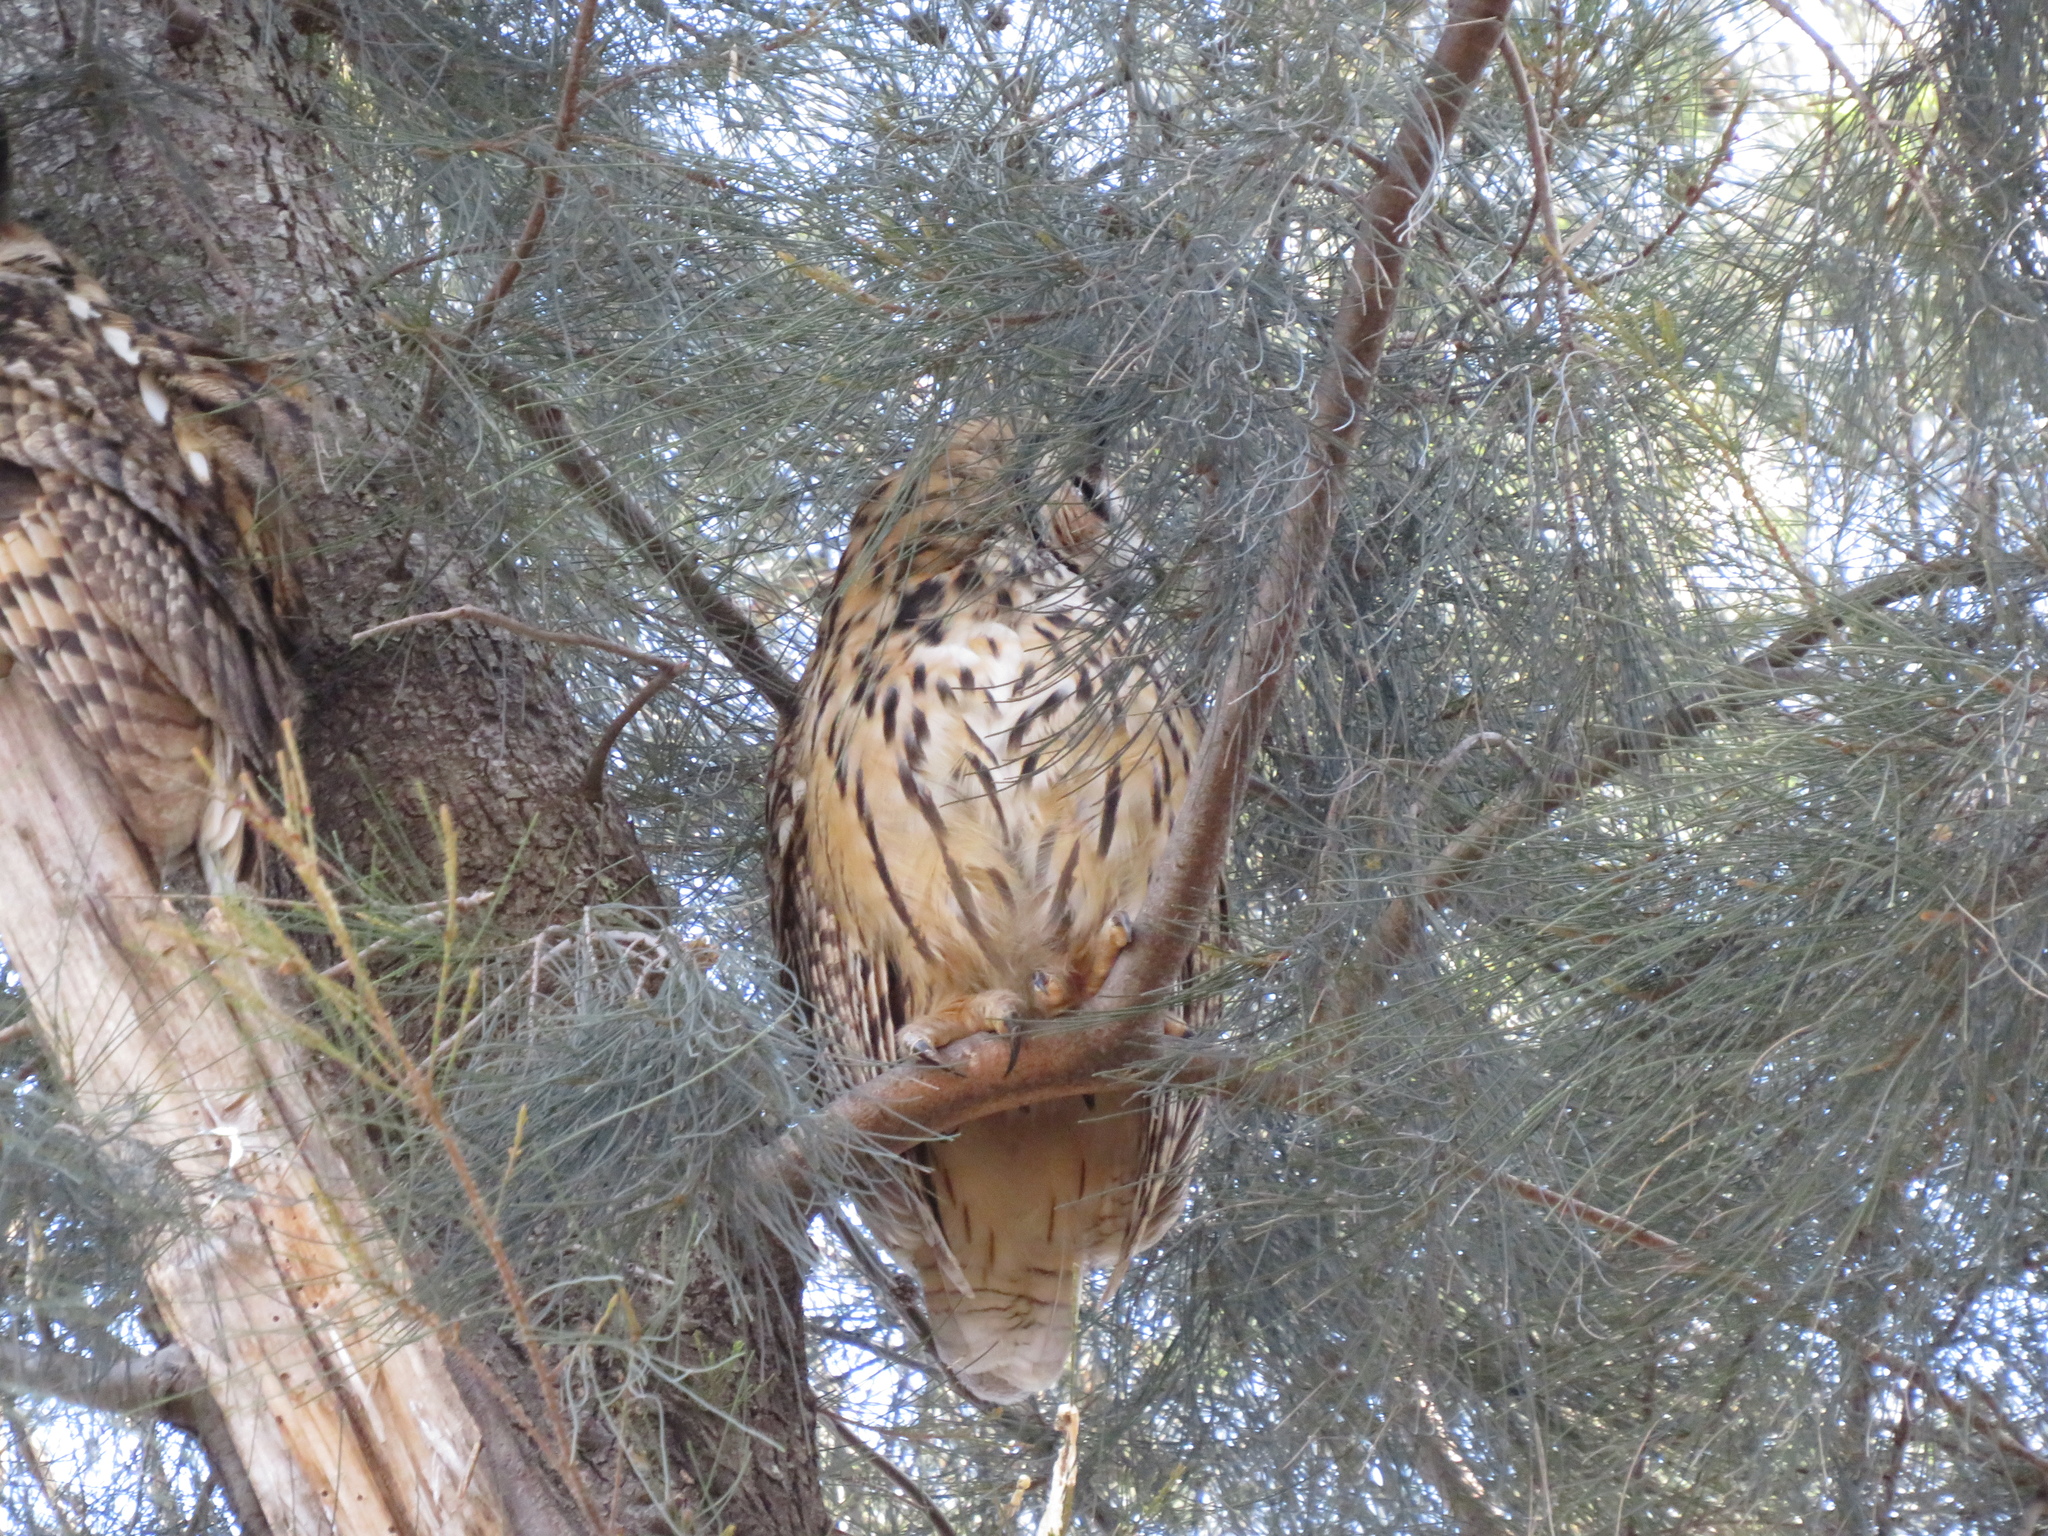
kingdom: Animalia
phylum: Chordata
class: Aves
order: Strigiformes
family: Strigidae
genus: Pseudoscops
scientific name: Pseudoscops clamator
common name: Striped owl
